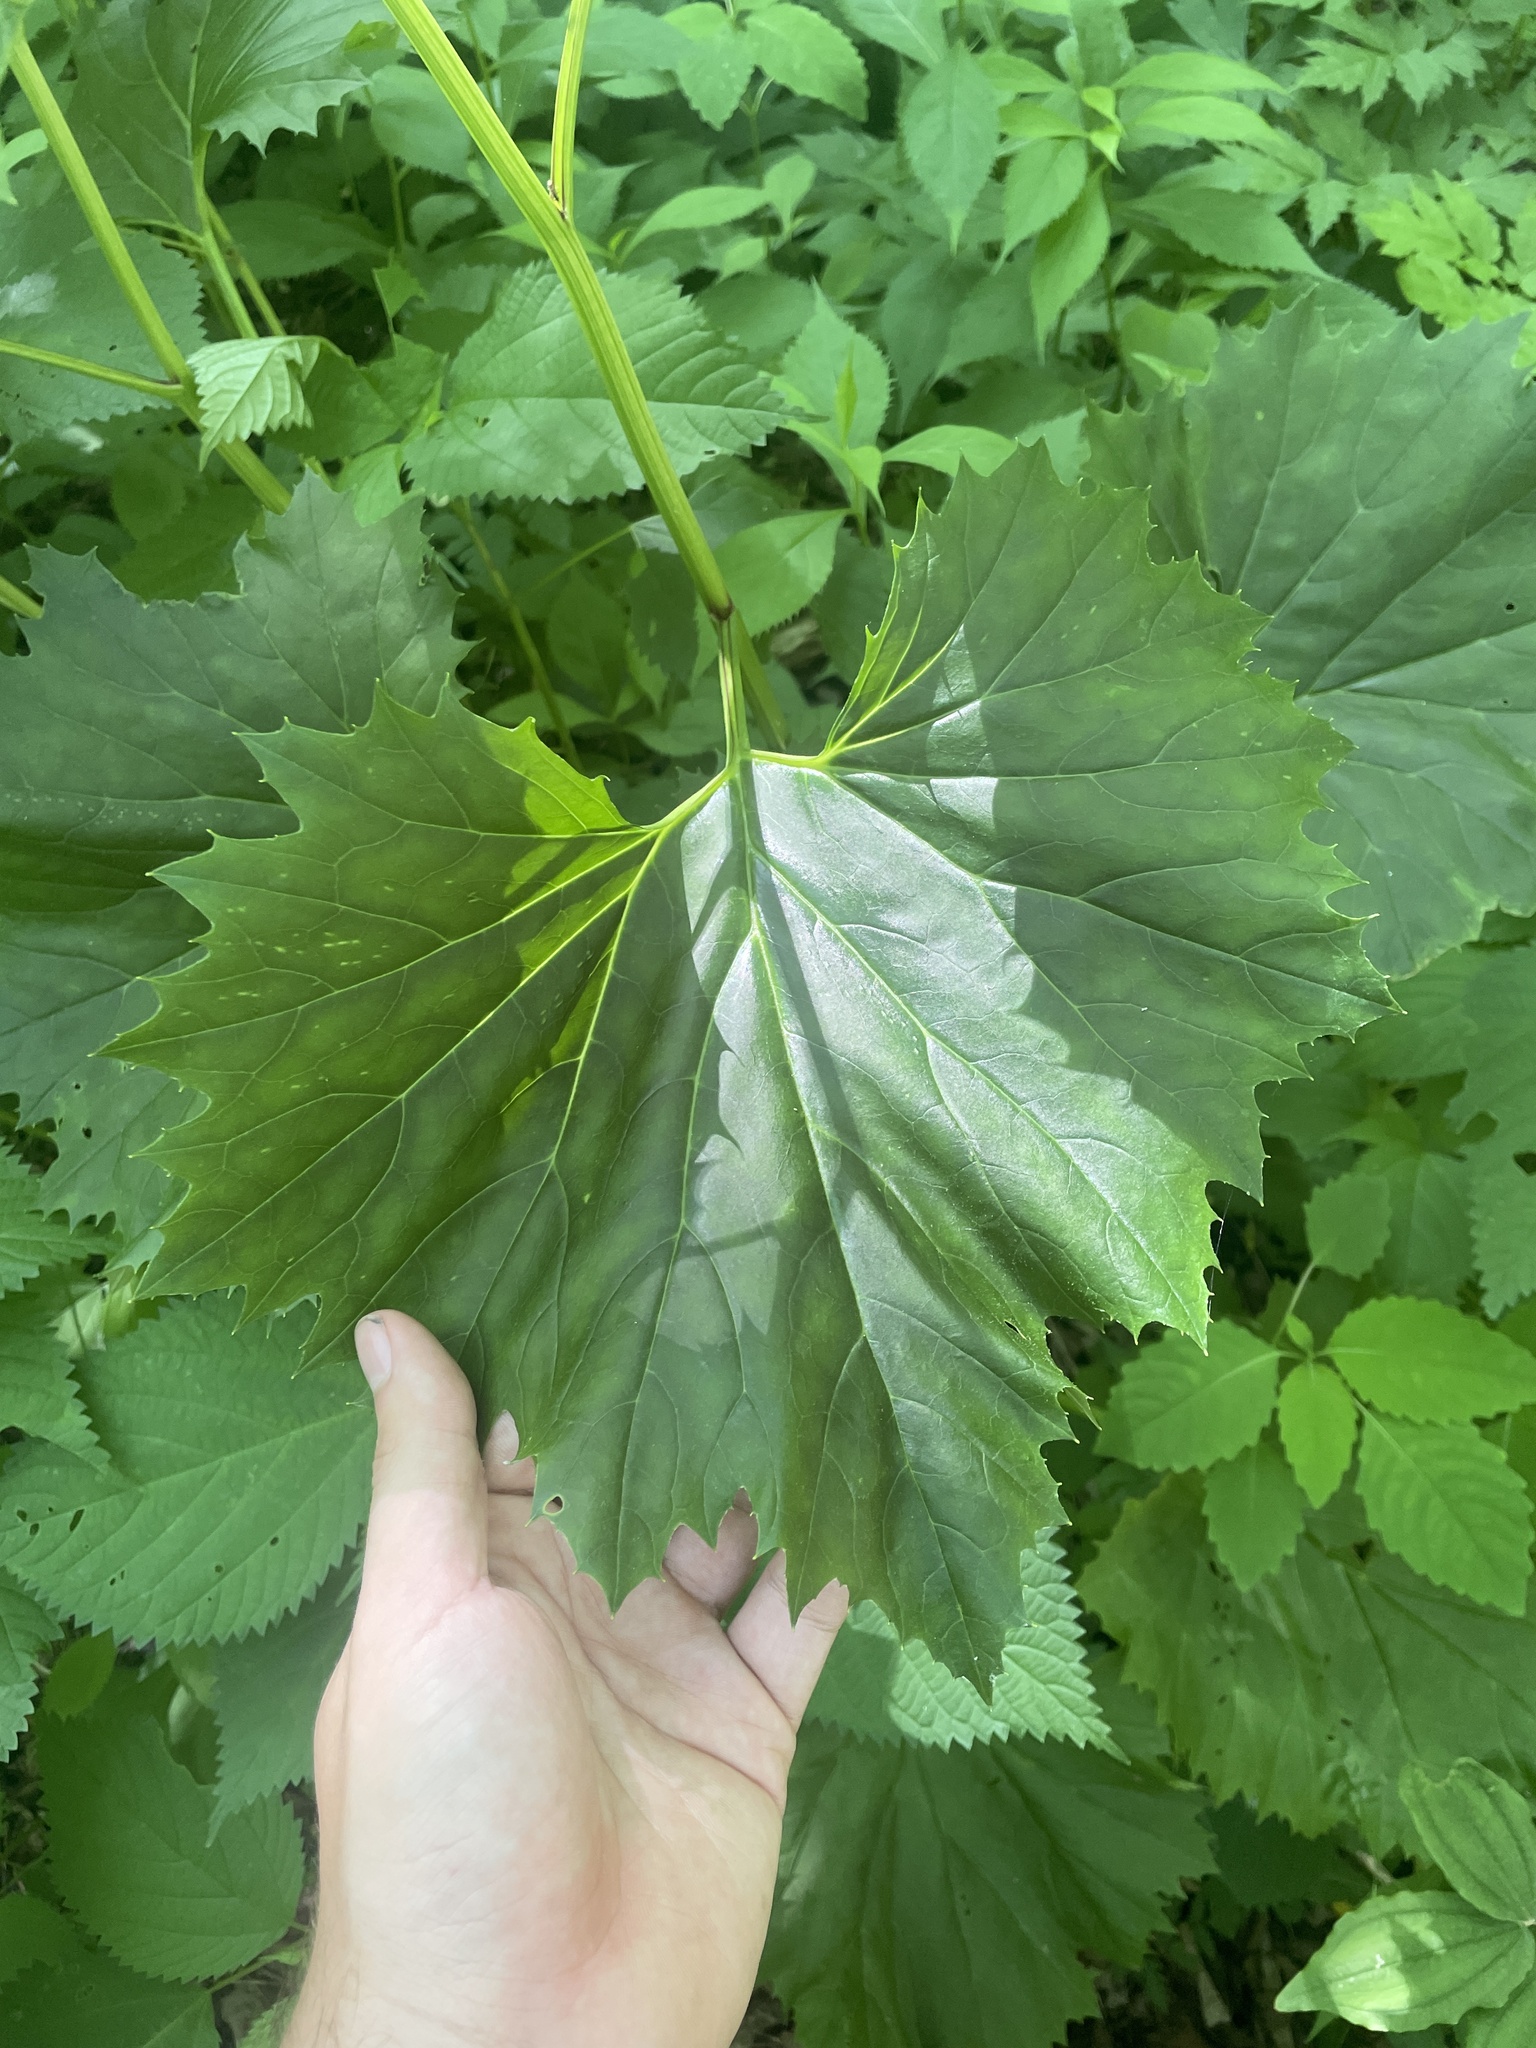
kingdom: Plantae
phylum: Tracheophyta
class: Magnoliopsida
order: Asterales
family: Asteraceae
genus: Arnoglossum
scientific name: Arnoglossum reniforme
